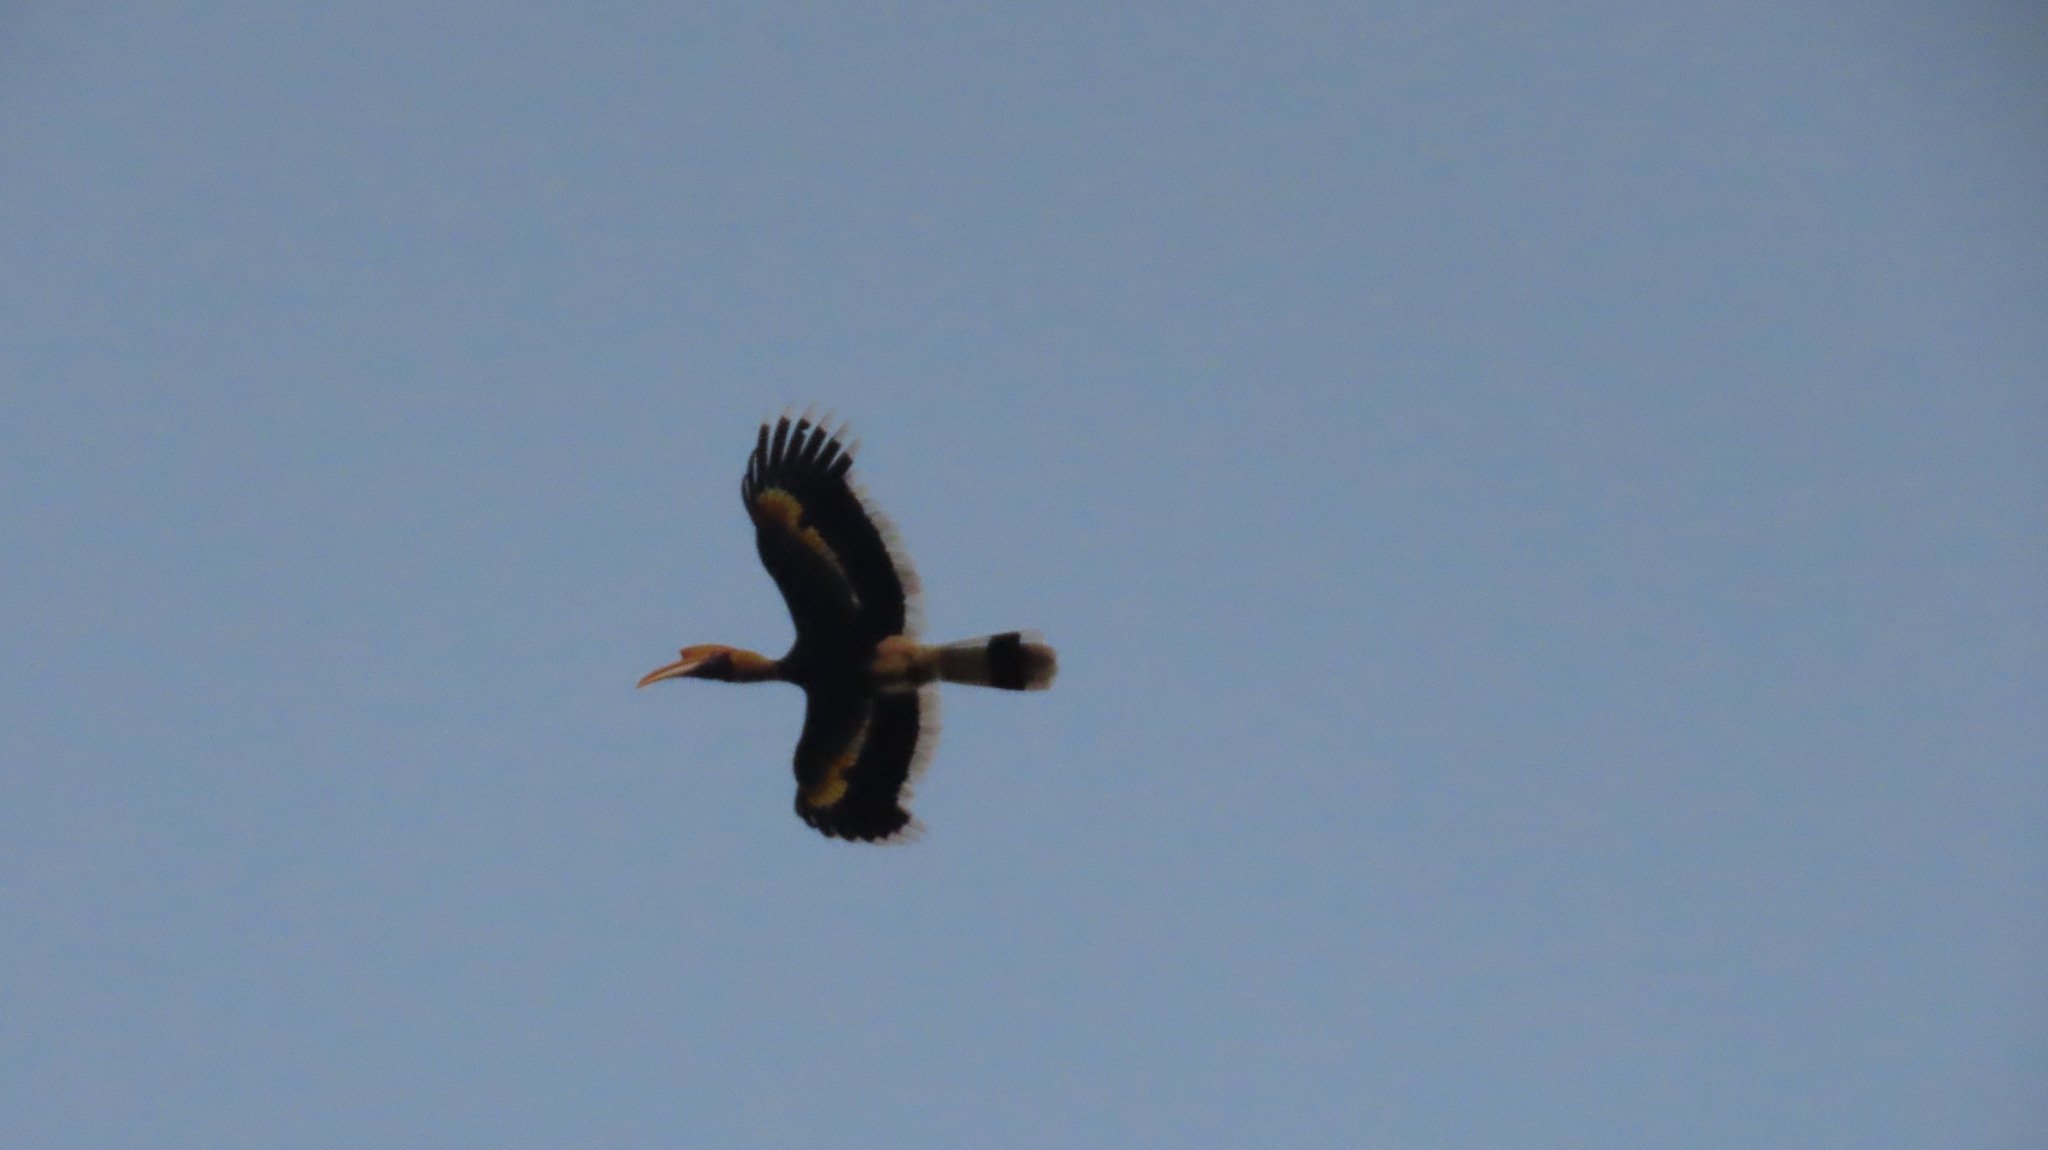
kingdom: Animalia
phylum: Chordata
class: Aves
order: Bucerotiformes
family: Bucerotidae
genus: Buceros
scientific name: Buceros bicornis
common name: Great hornbill
